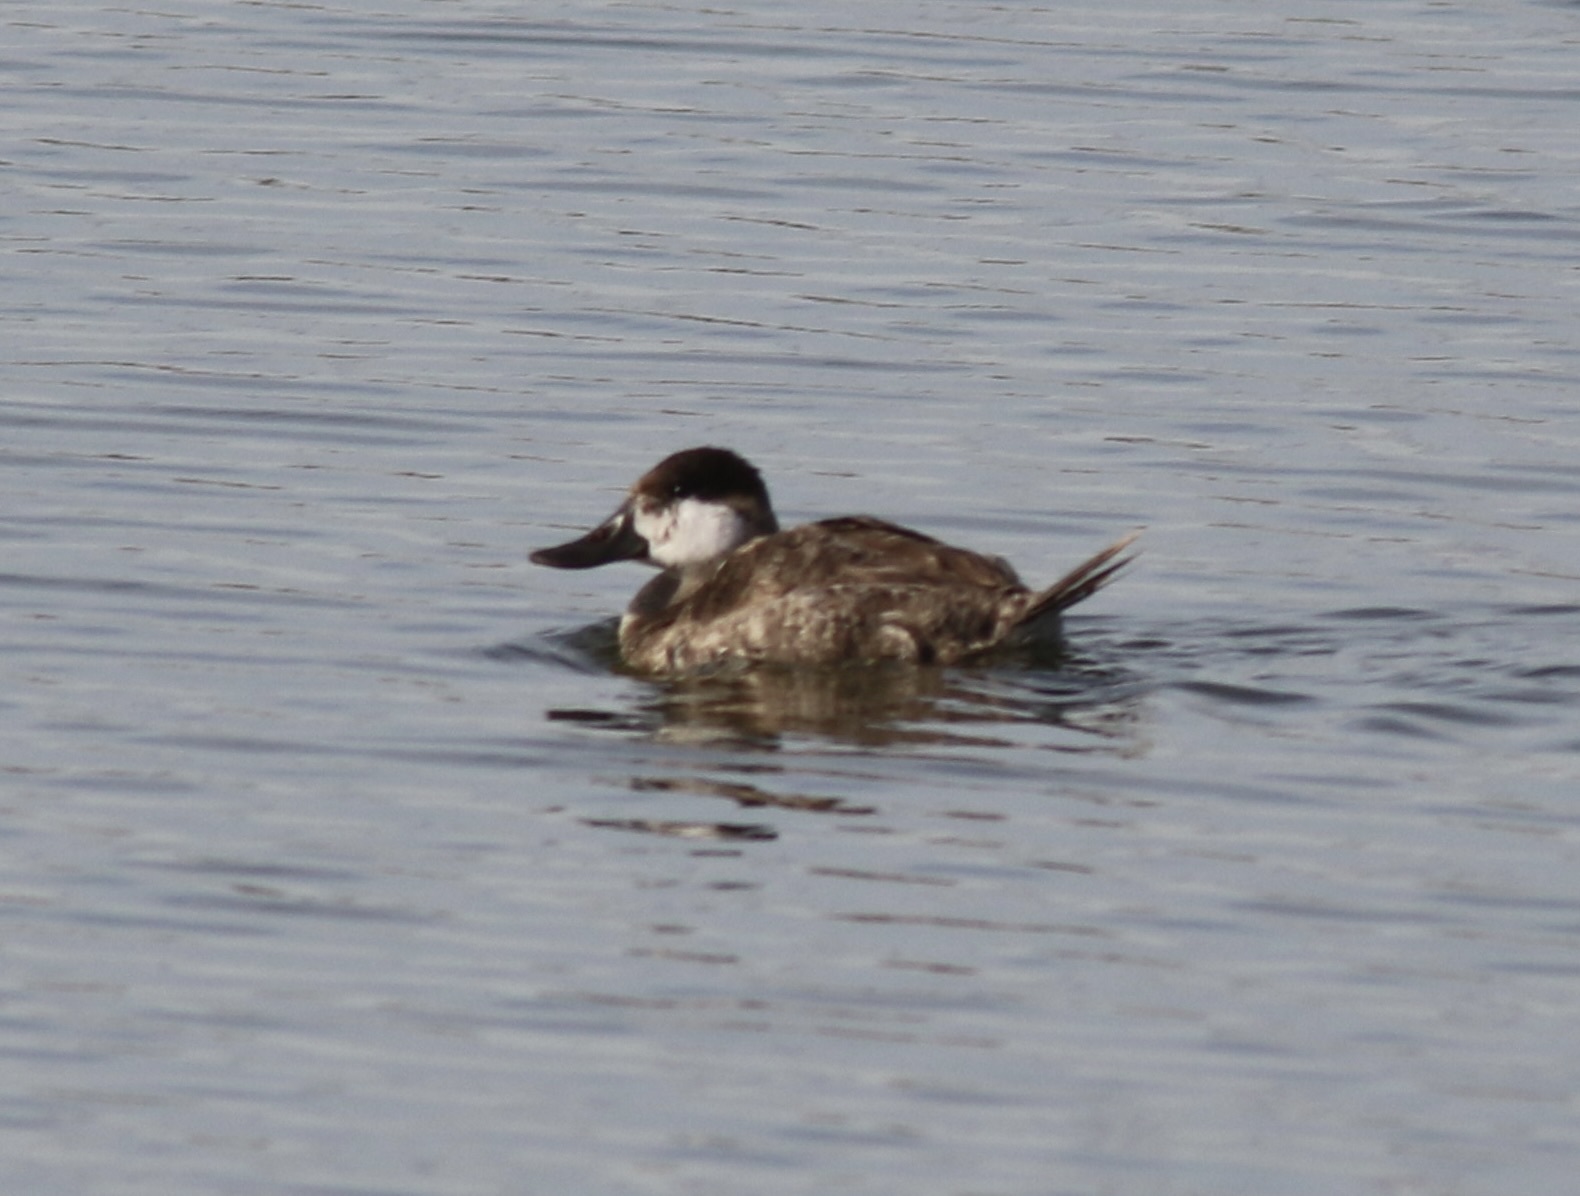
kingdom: Animalia
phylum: Chordata
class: Aves
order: Anseriformes
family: Anatidae
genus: Oxyura
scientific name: Oxyura jamaicensis
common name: Ruddy duck
